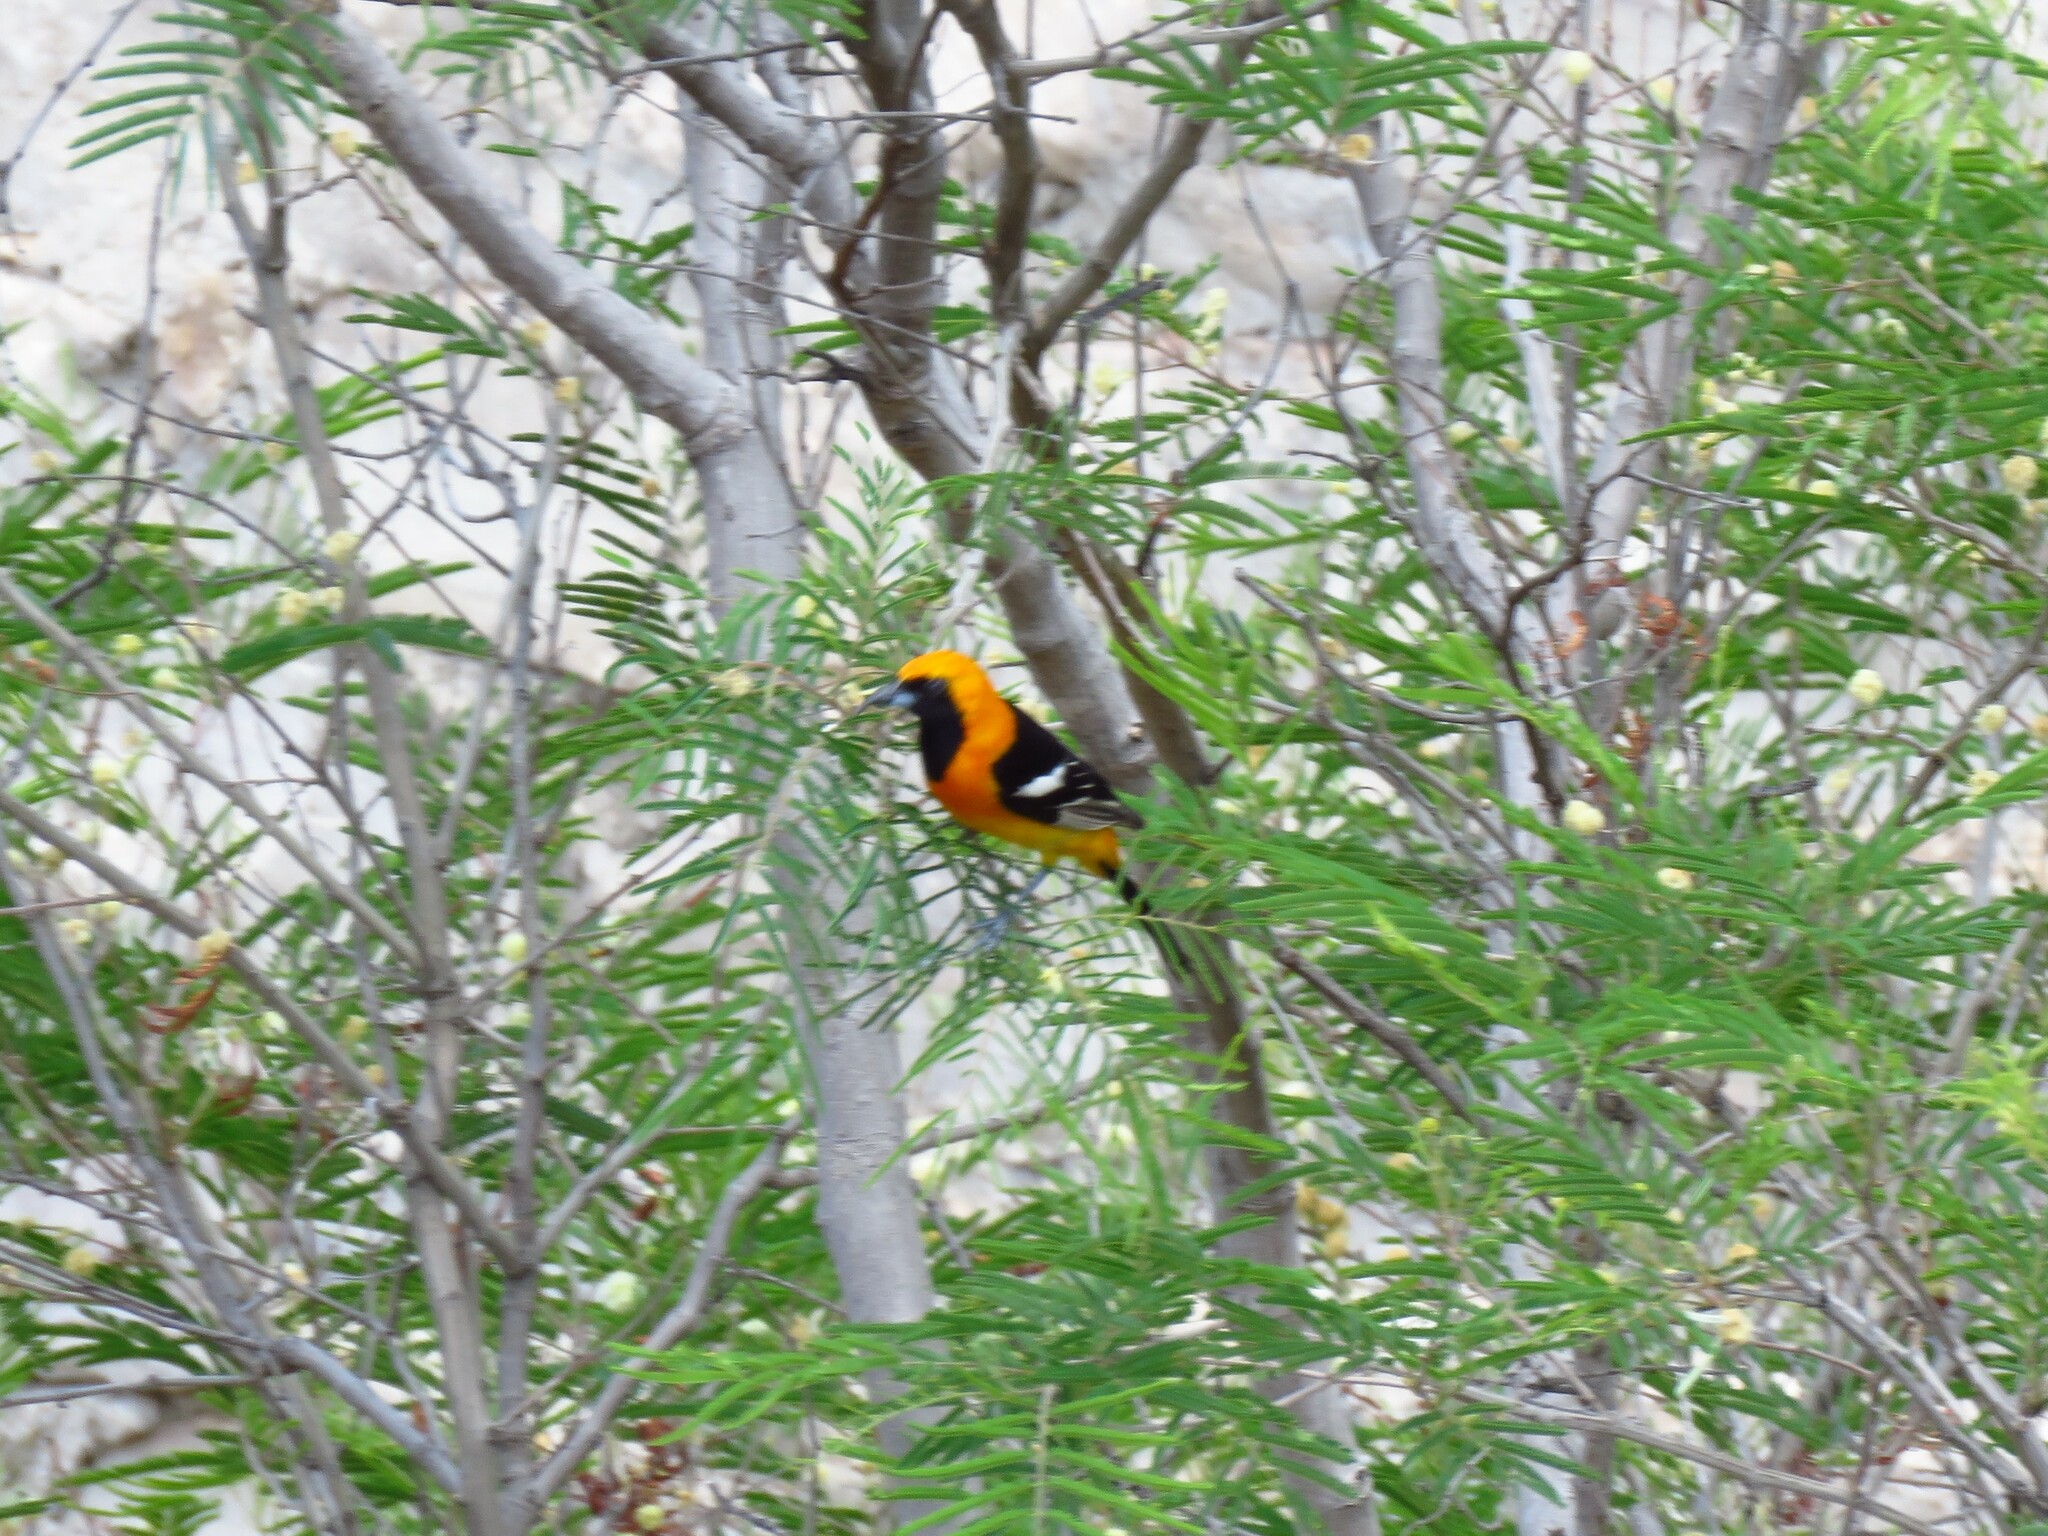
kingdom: Animalia
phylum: Chordata
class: Aves
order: Passeriformes
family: Icteridae
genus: Icterus
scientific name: Icterus cucullatus
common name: Hooded oriole
